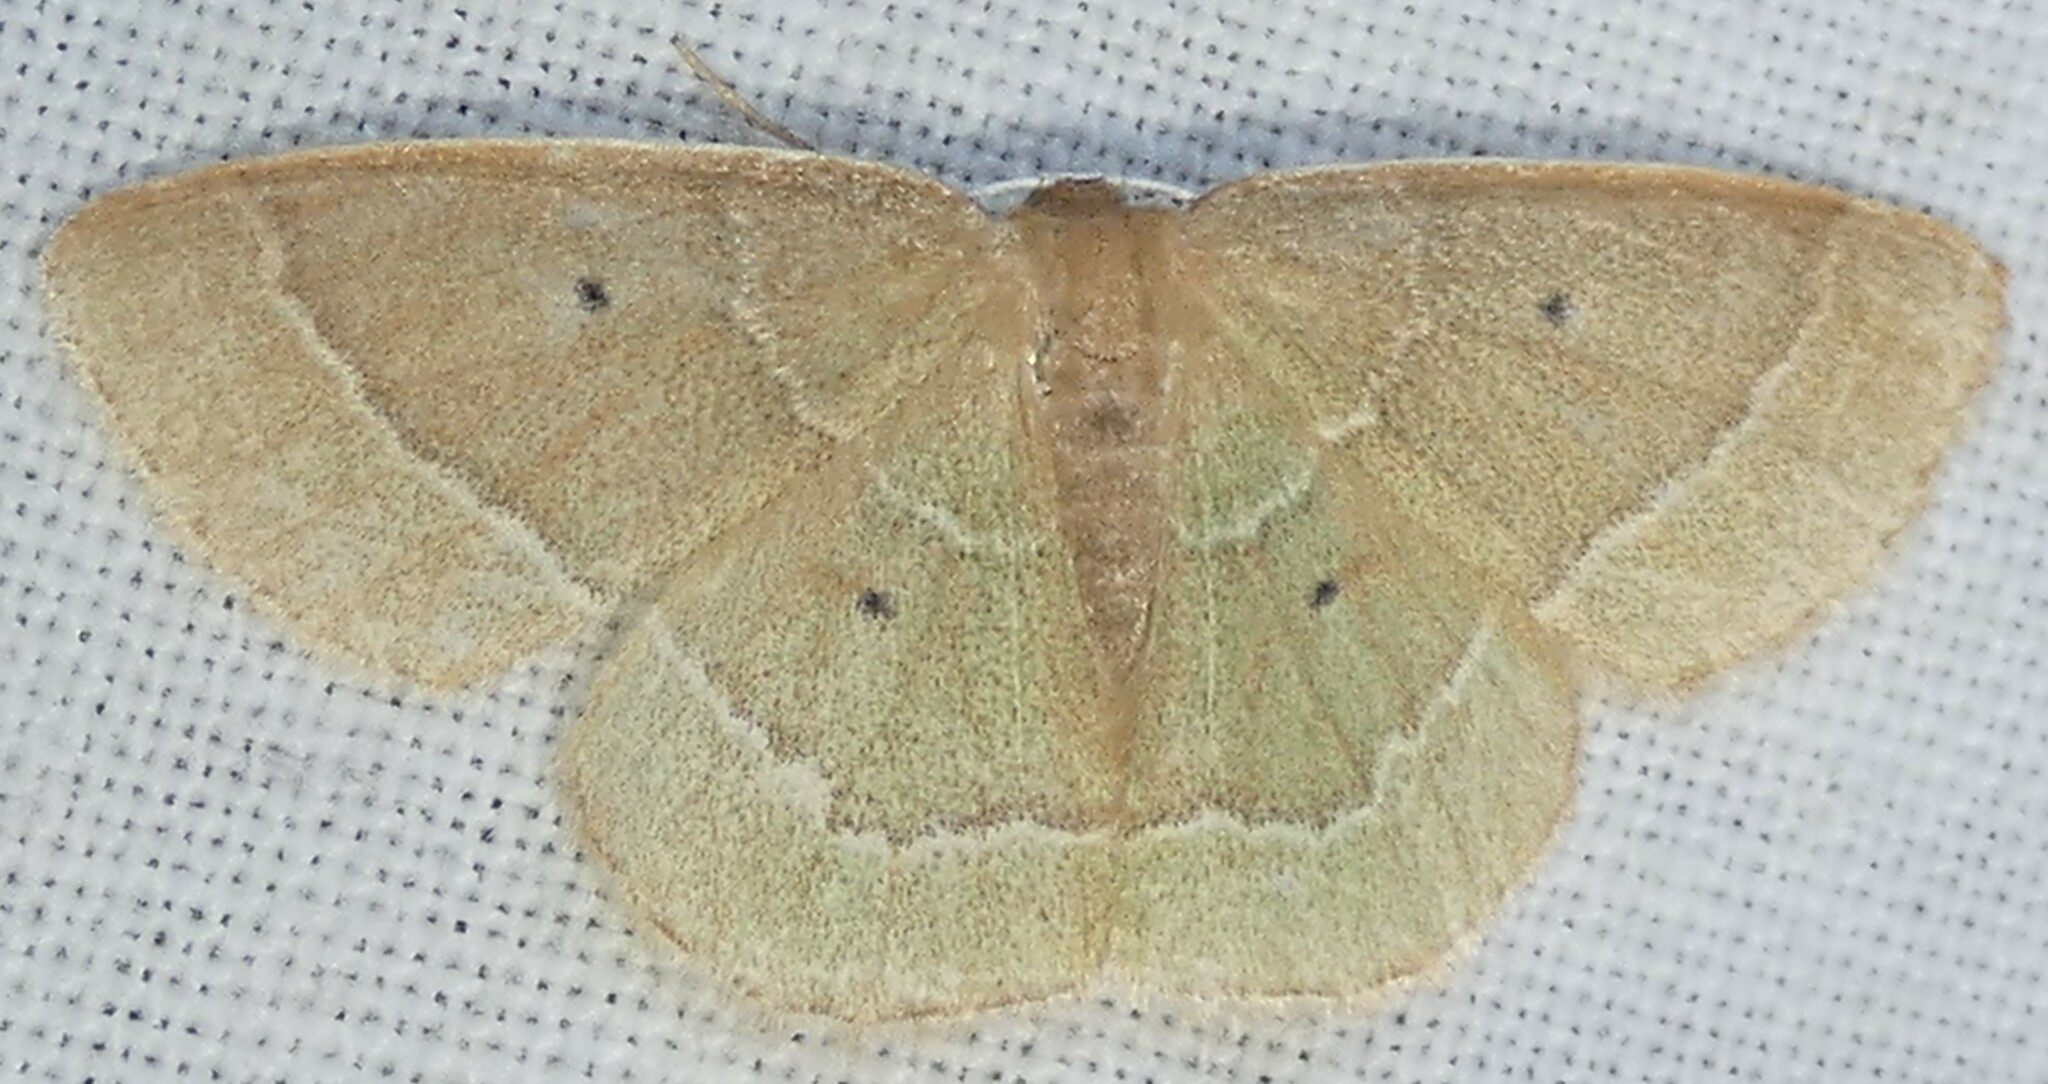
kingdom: Animalia
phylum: Arthropoda
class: Insecta
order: Lepidoptera
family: Geometridae
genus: Nemoria
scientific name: Nemoria elfa
